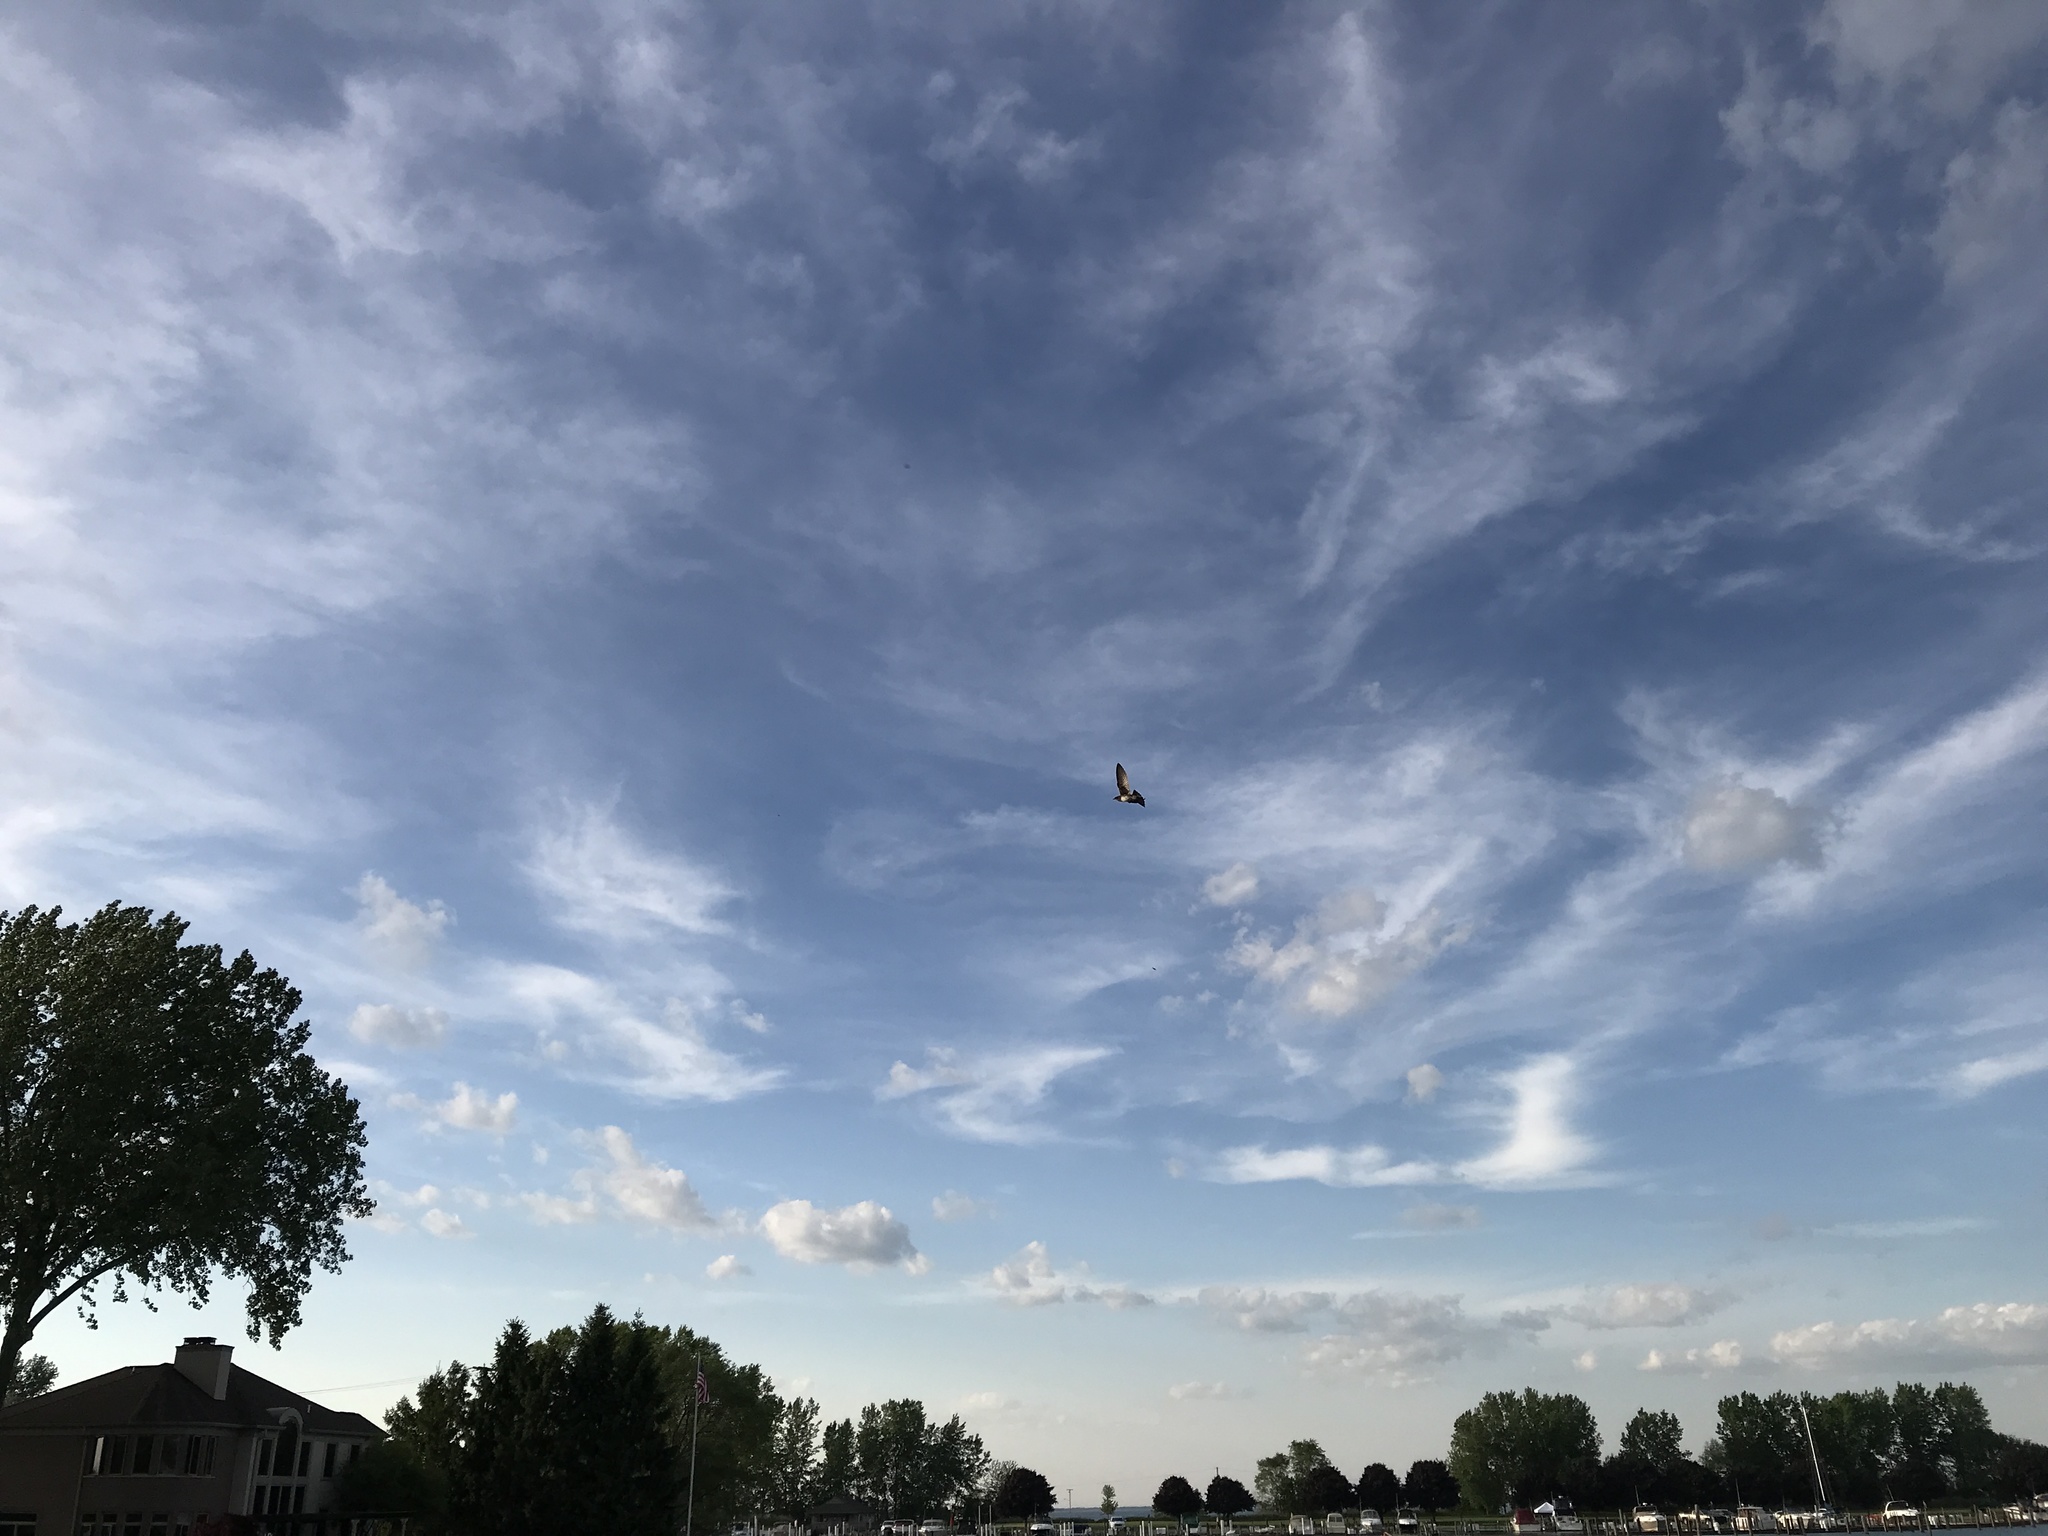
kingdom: Animalia
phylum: Chordata
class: Aves
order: Passeriformes
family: Hirundinidae
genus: Progne
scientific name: Progne subis
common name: Purple martin
